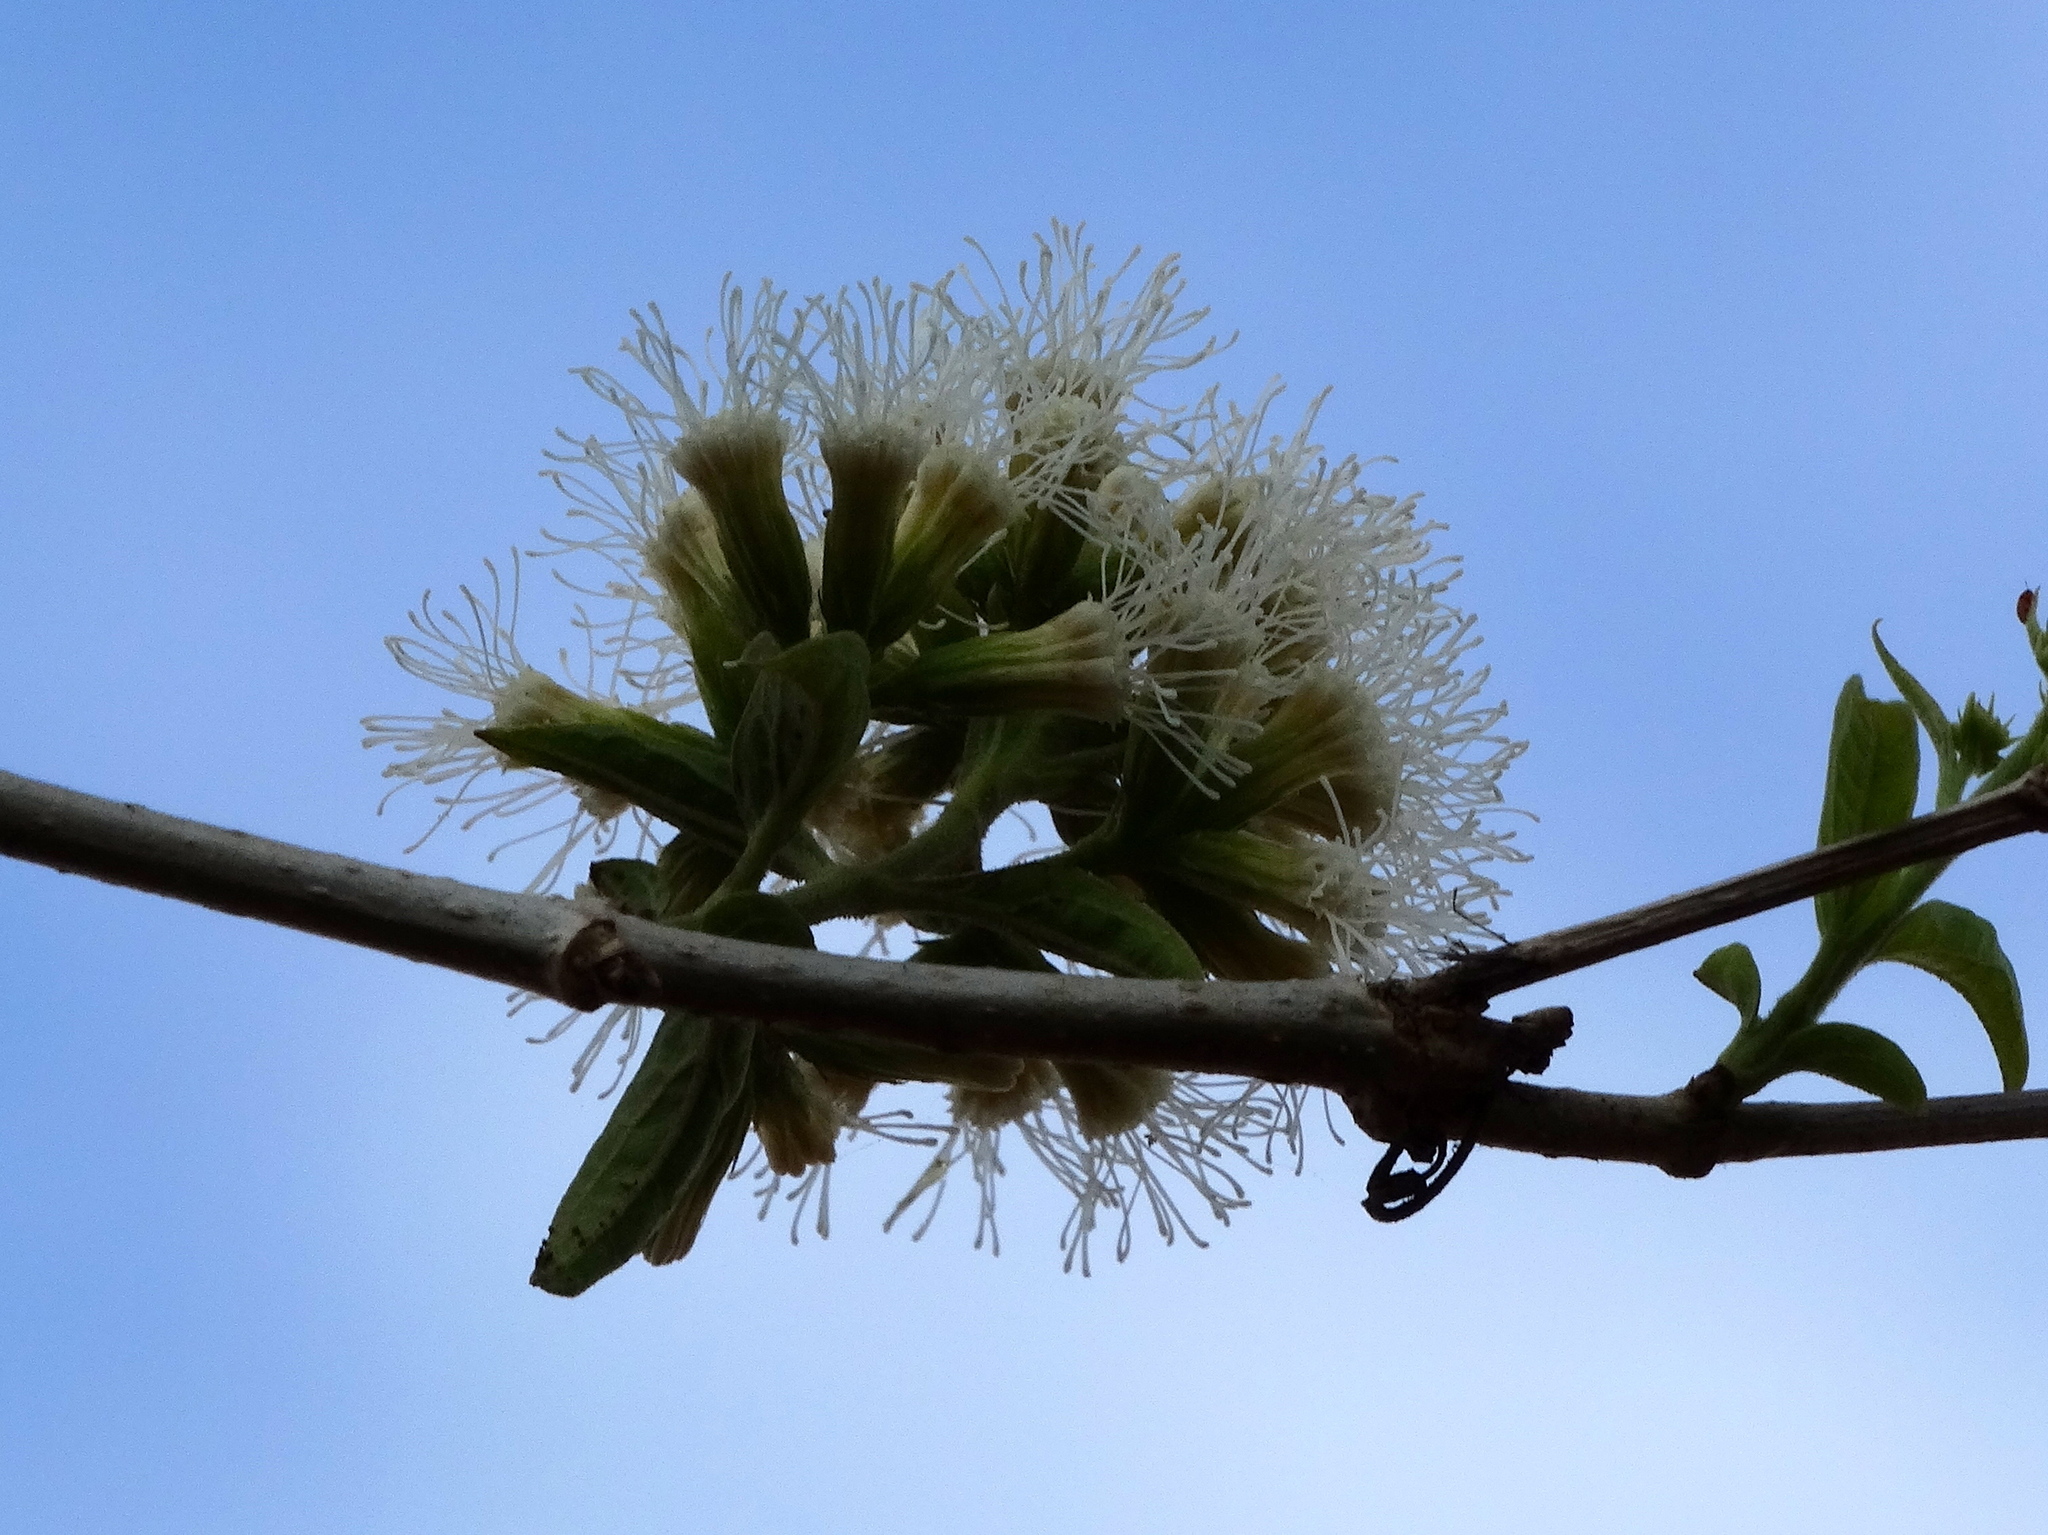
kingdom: Plantae
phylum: Tracheophyta
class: Magnoliopsida
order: Asterales
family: Asteraceae
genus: Koanophyllon
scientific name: Koanophyllon albicaule
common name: Old women's walking stick
